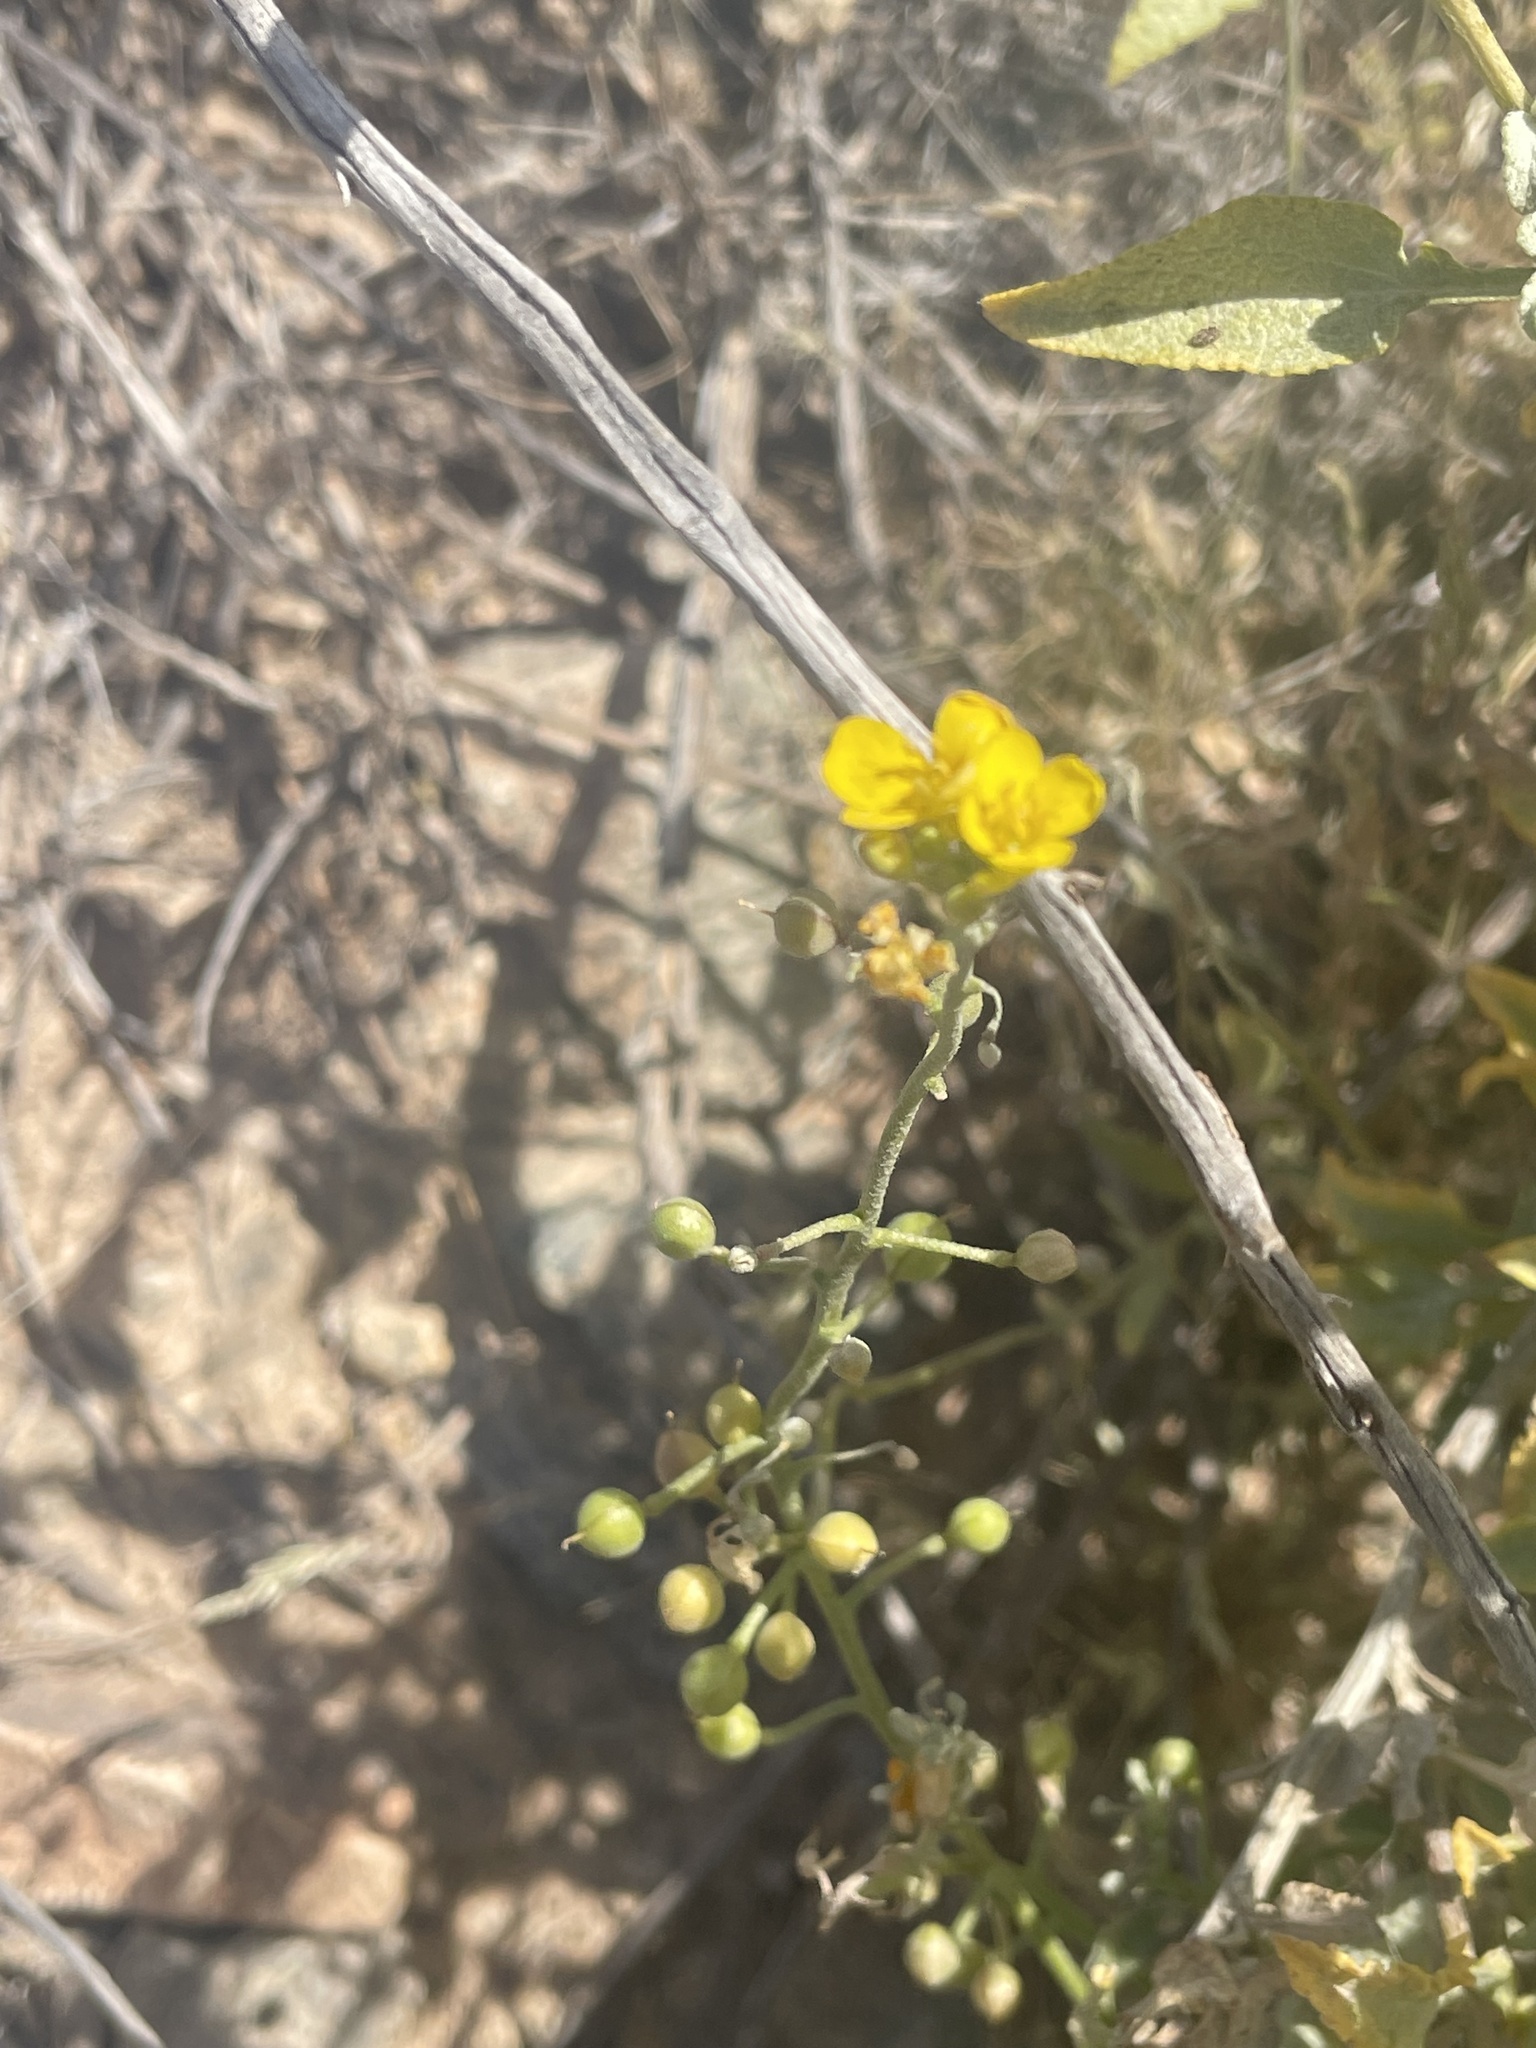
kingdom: Plantae
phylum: Tracheophyta
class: Magnoliopsida
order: Brassicales
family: Brassicaceae
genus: Physaria
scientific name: Physaria tenella
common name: Moapa bladderpod
